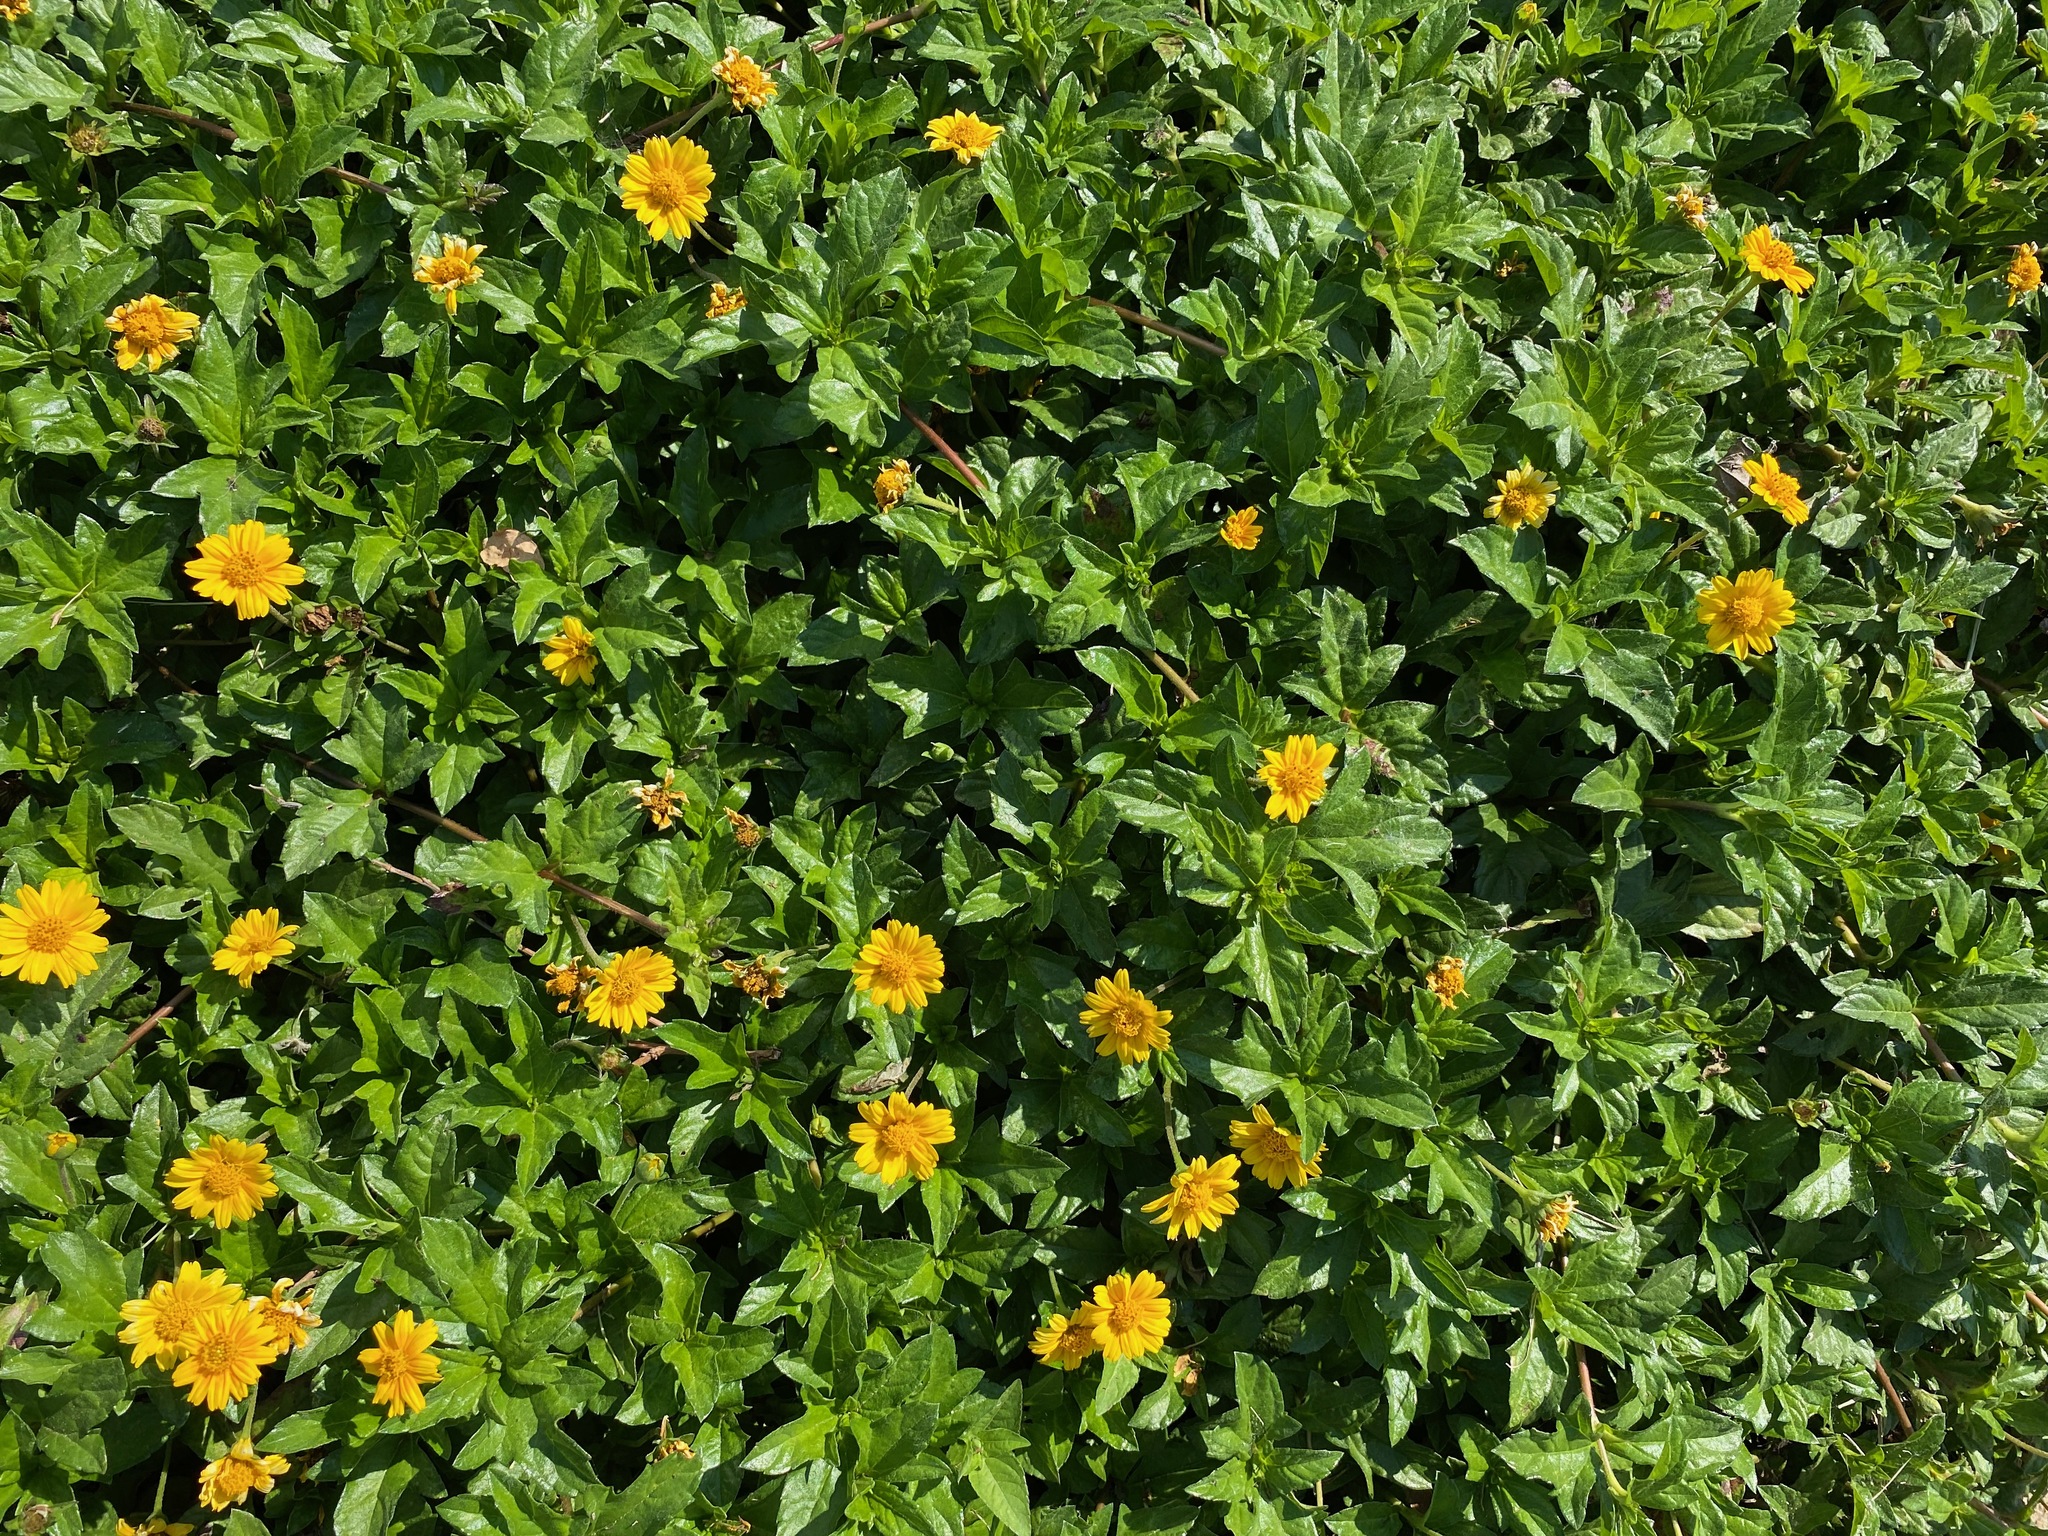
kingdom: Plantae
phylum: Tracheophyta
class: Magnoliopsida
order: Asterales
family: Asteraceae
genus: Sphagneticola
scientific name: Sphagneticola trilobata
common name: Bay biscayne creeping-oxeye
